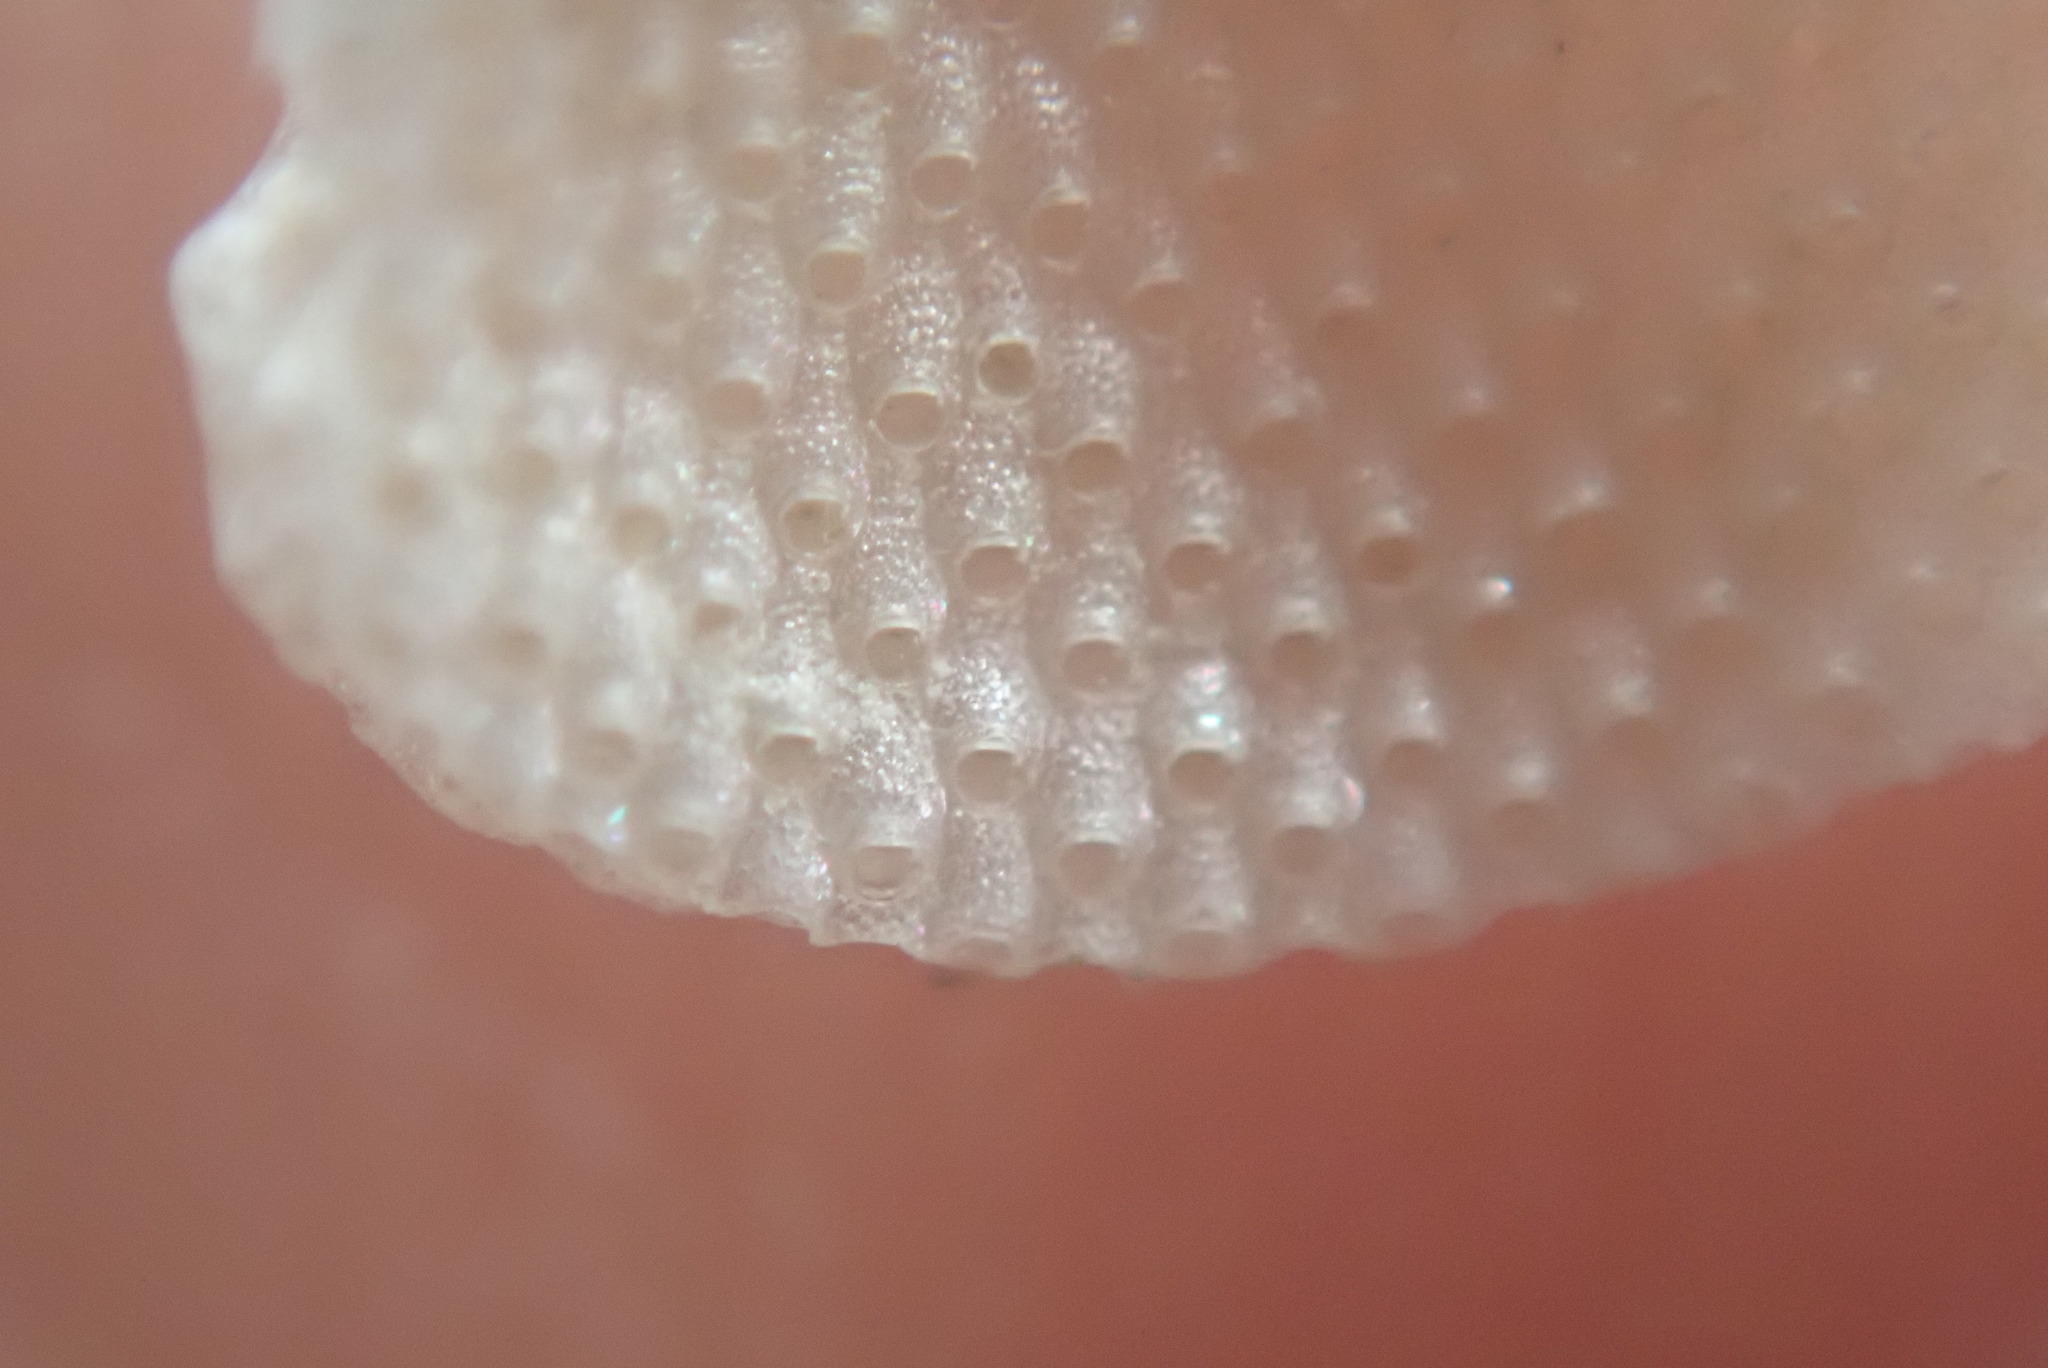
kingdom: Animalia
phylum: Bryozoa
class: Gymnolaemata
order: Cheilostomatida
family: Pacificincolidae
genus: Primavelans
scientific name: Primavelans insculpta
